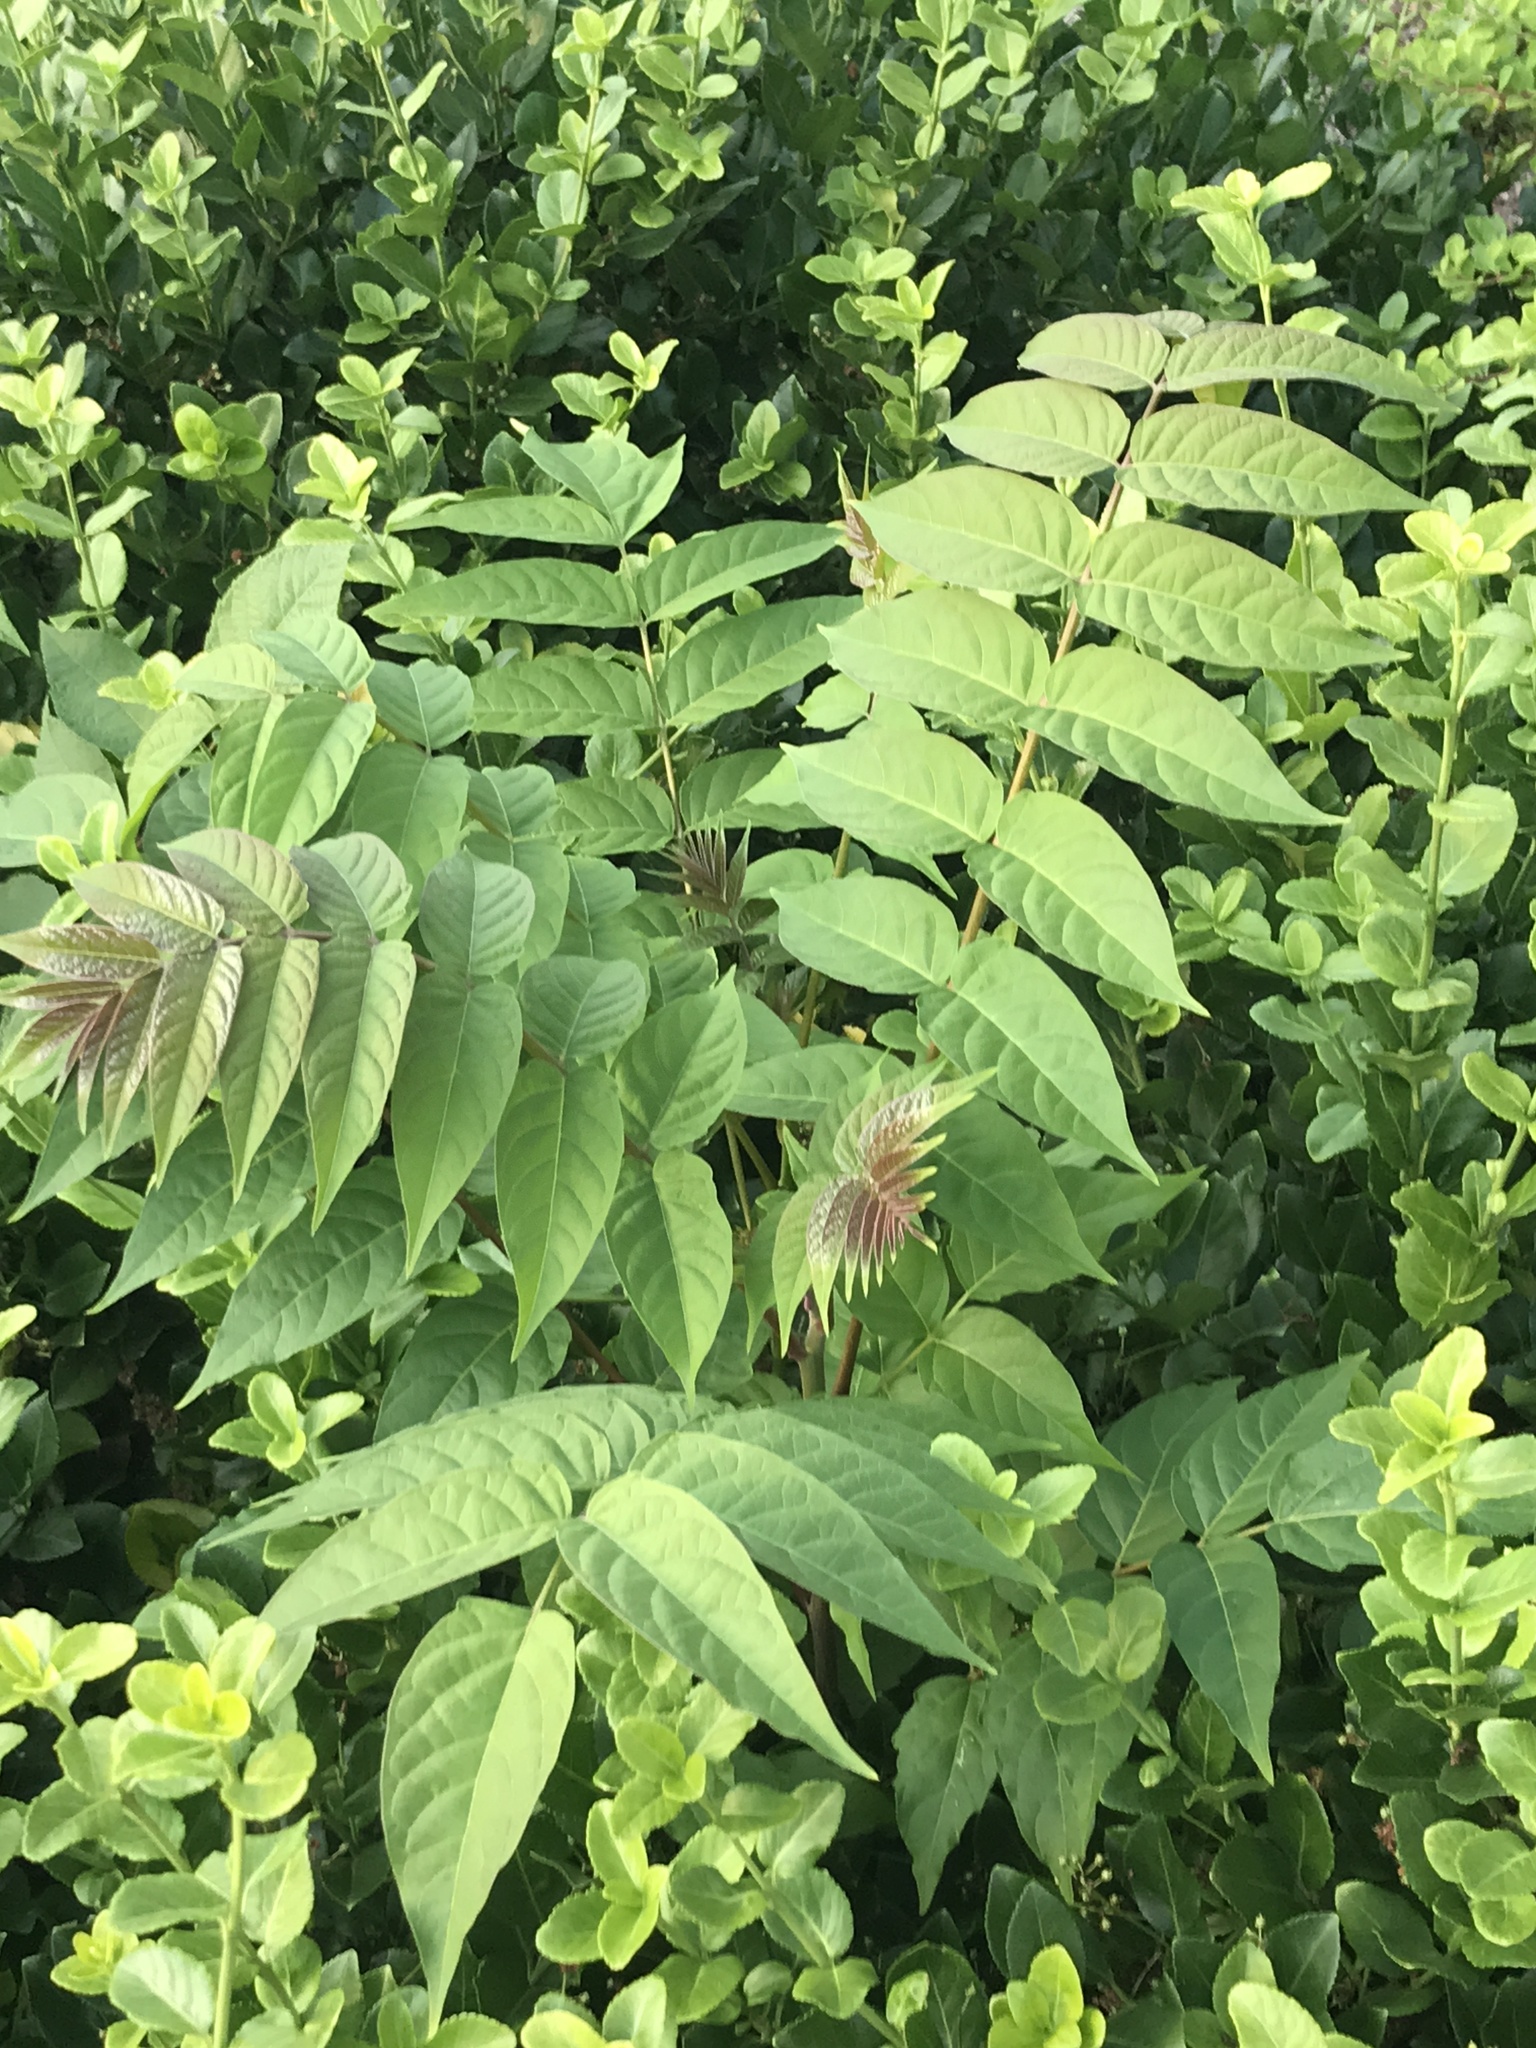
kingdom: Plantae
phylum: Tracheophyta
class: Magnoliopsida
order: Sapindales
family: Simaroubaceae
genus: Ailanthus
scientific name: Ailanthus altissima
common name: Tree-of-heaven
